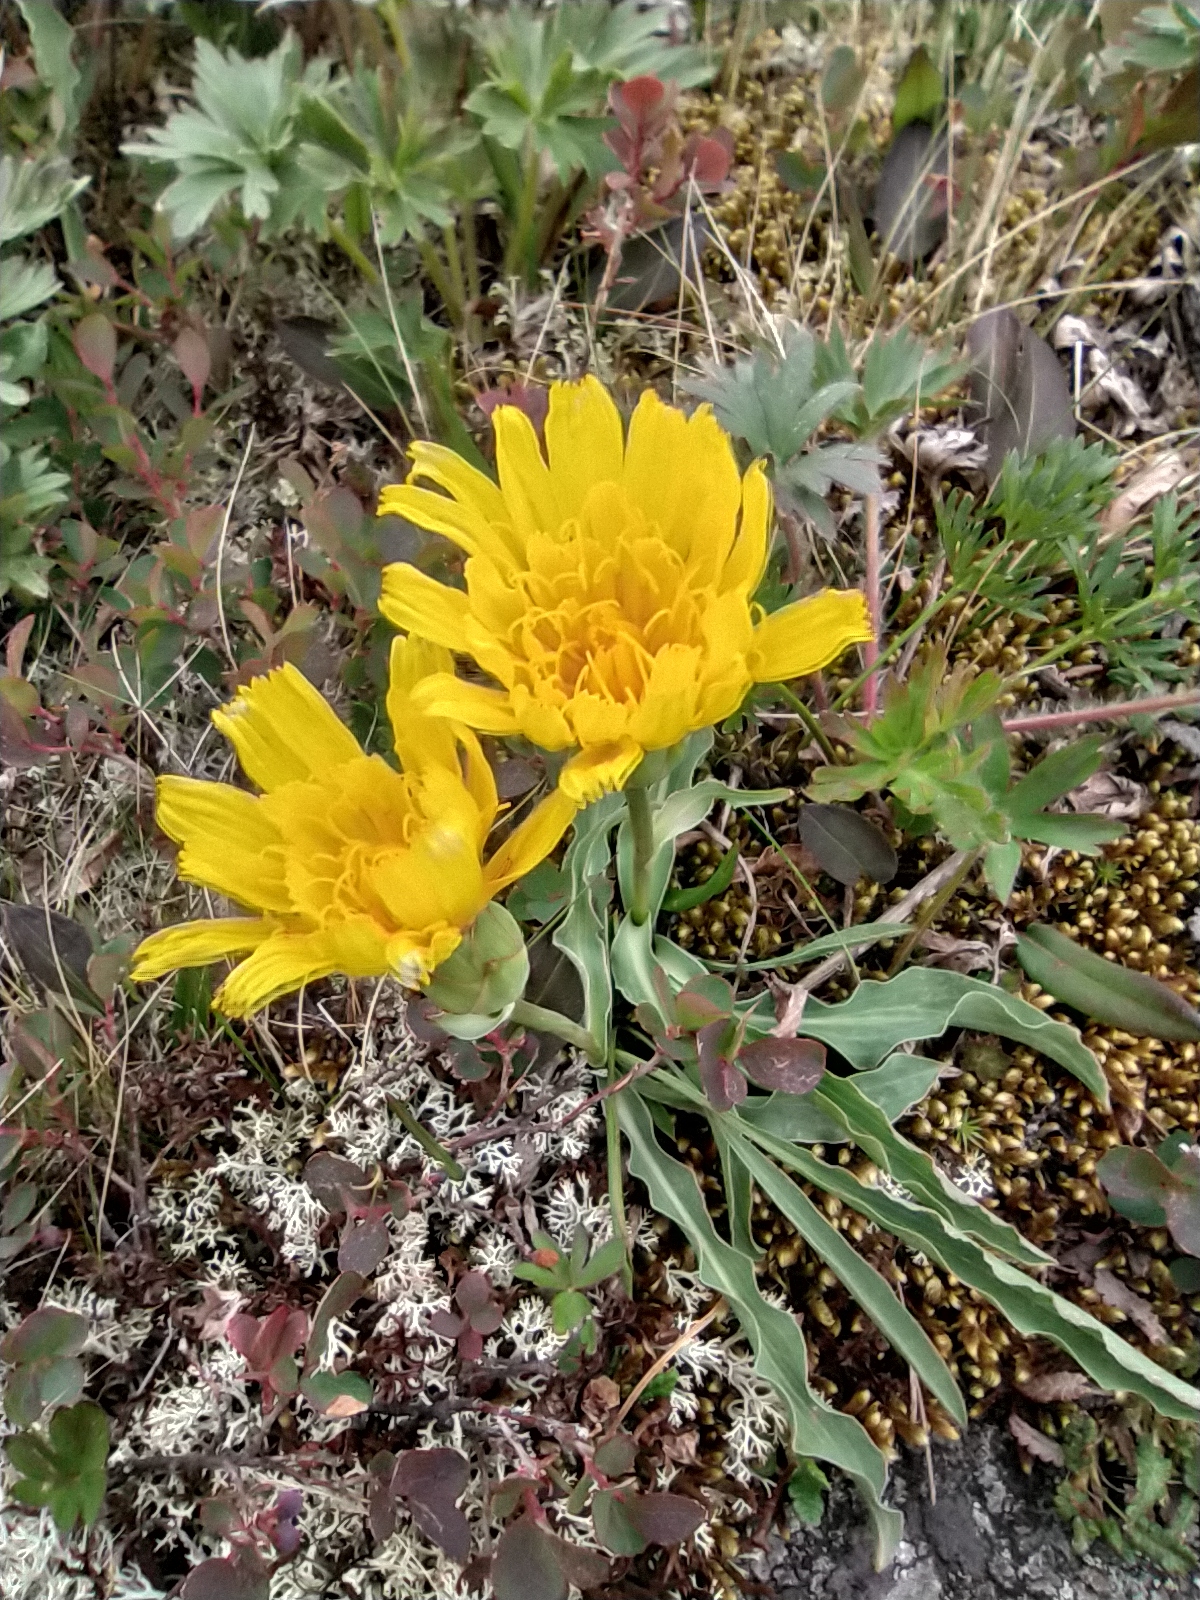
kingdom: Plantae
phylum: Tracheophyta
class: Magnoliopsida
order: Asterales
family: Asteraceae
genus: Scorzonera
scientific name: Scorzonera glabra
